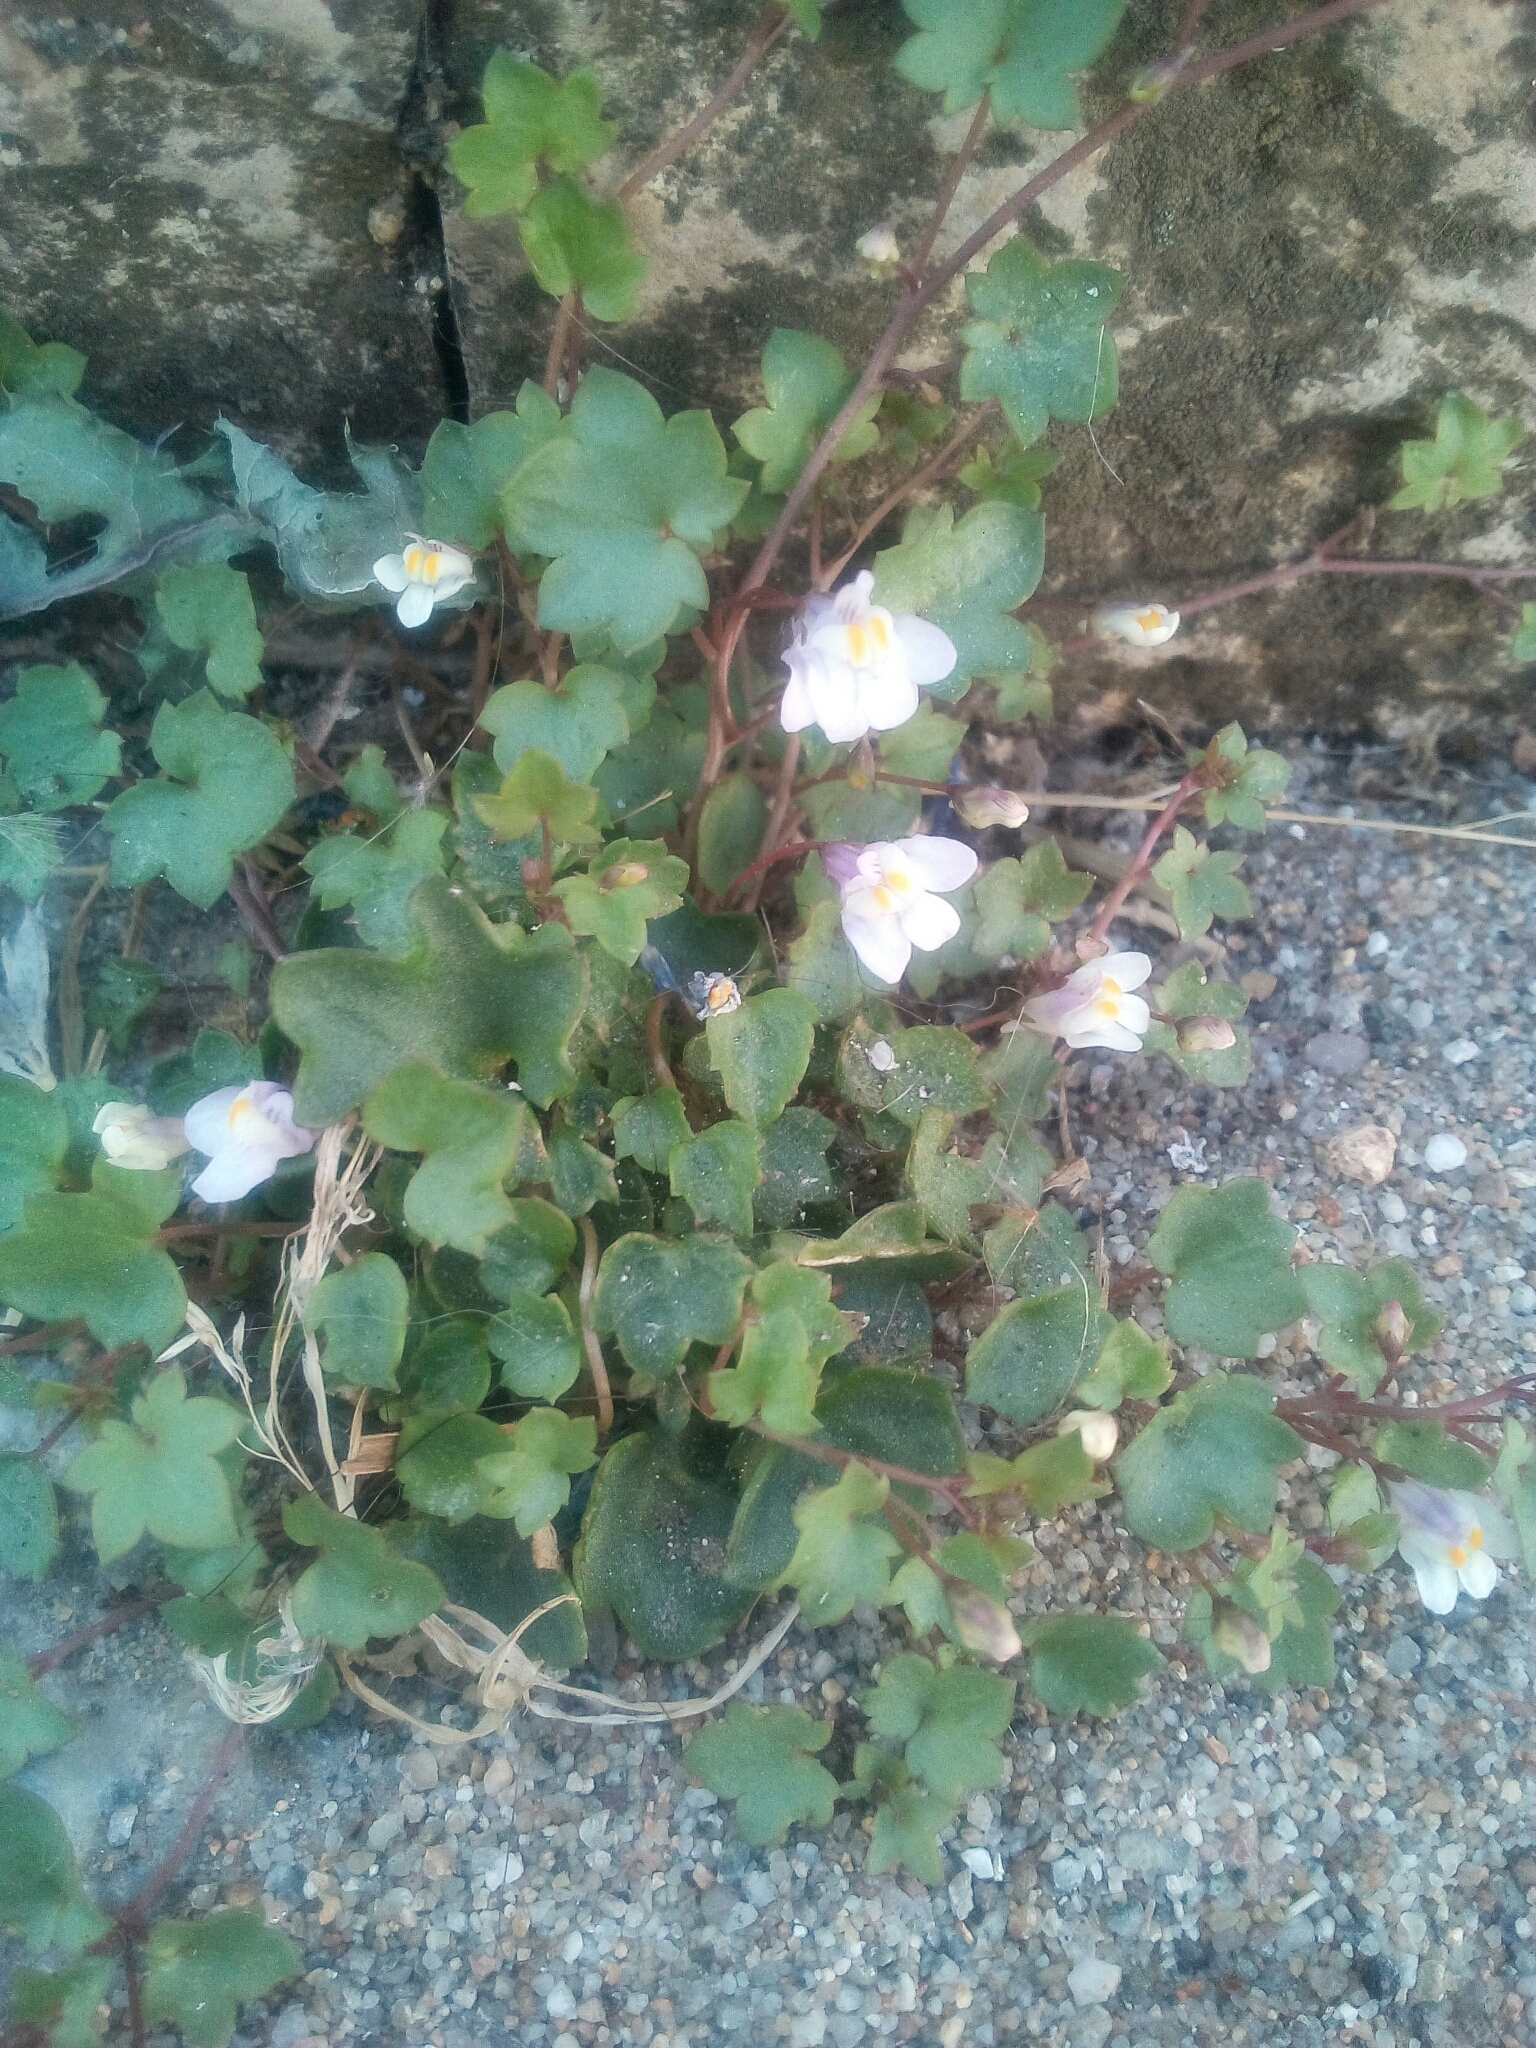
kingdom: Plantae
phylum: Tracheophyta
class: Magnoliopsida
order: Lamiales
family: Plantaginaceae
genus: Cymbalaria
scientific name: Cymbalaria muralis
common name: Ivy-leaved toadflax
